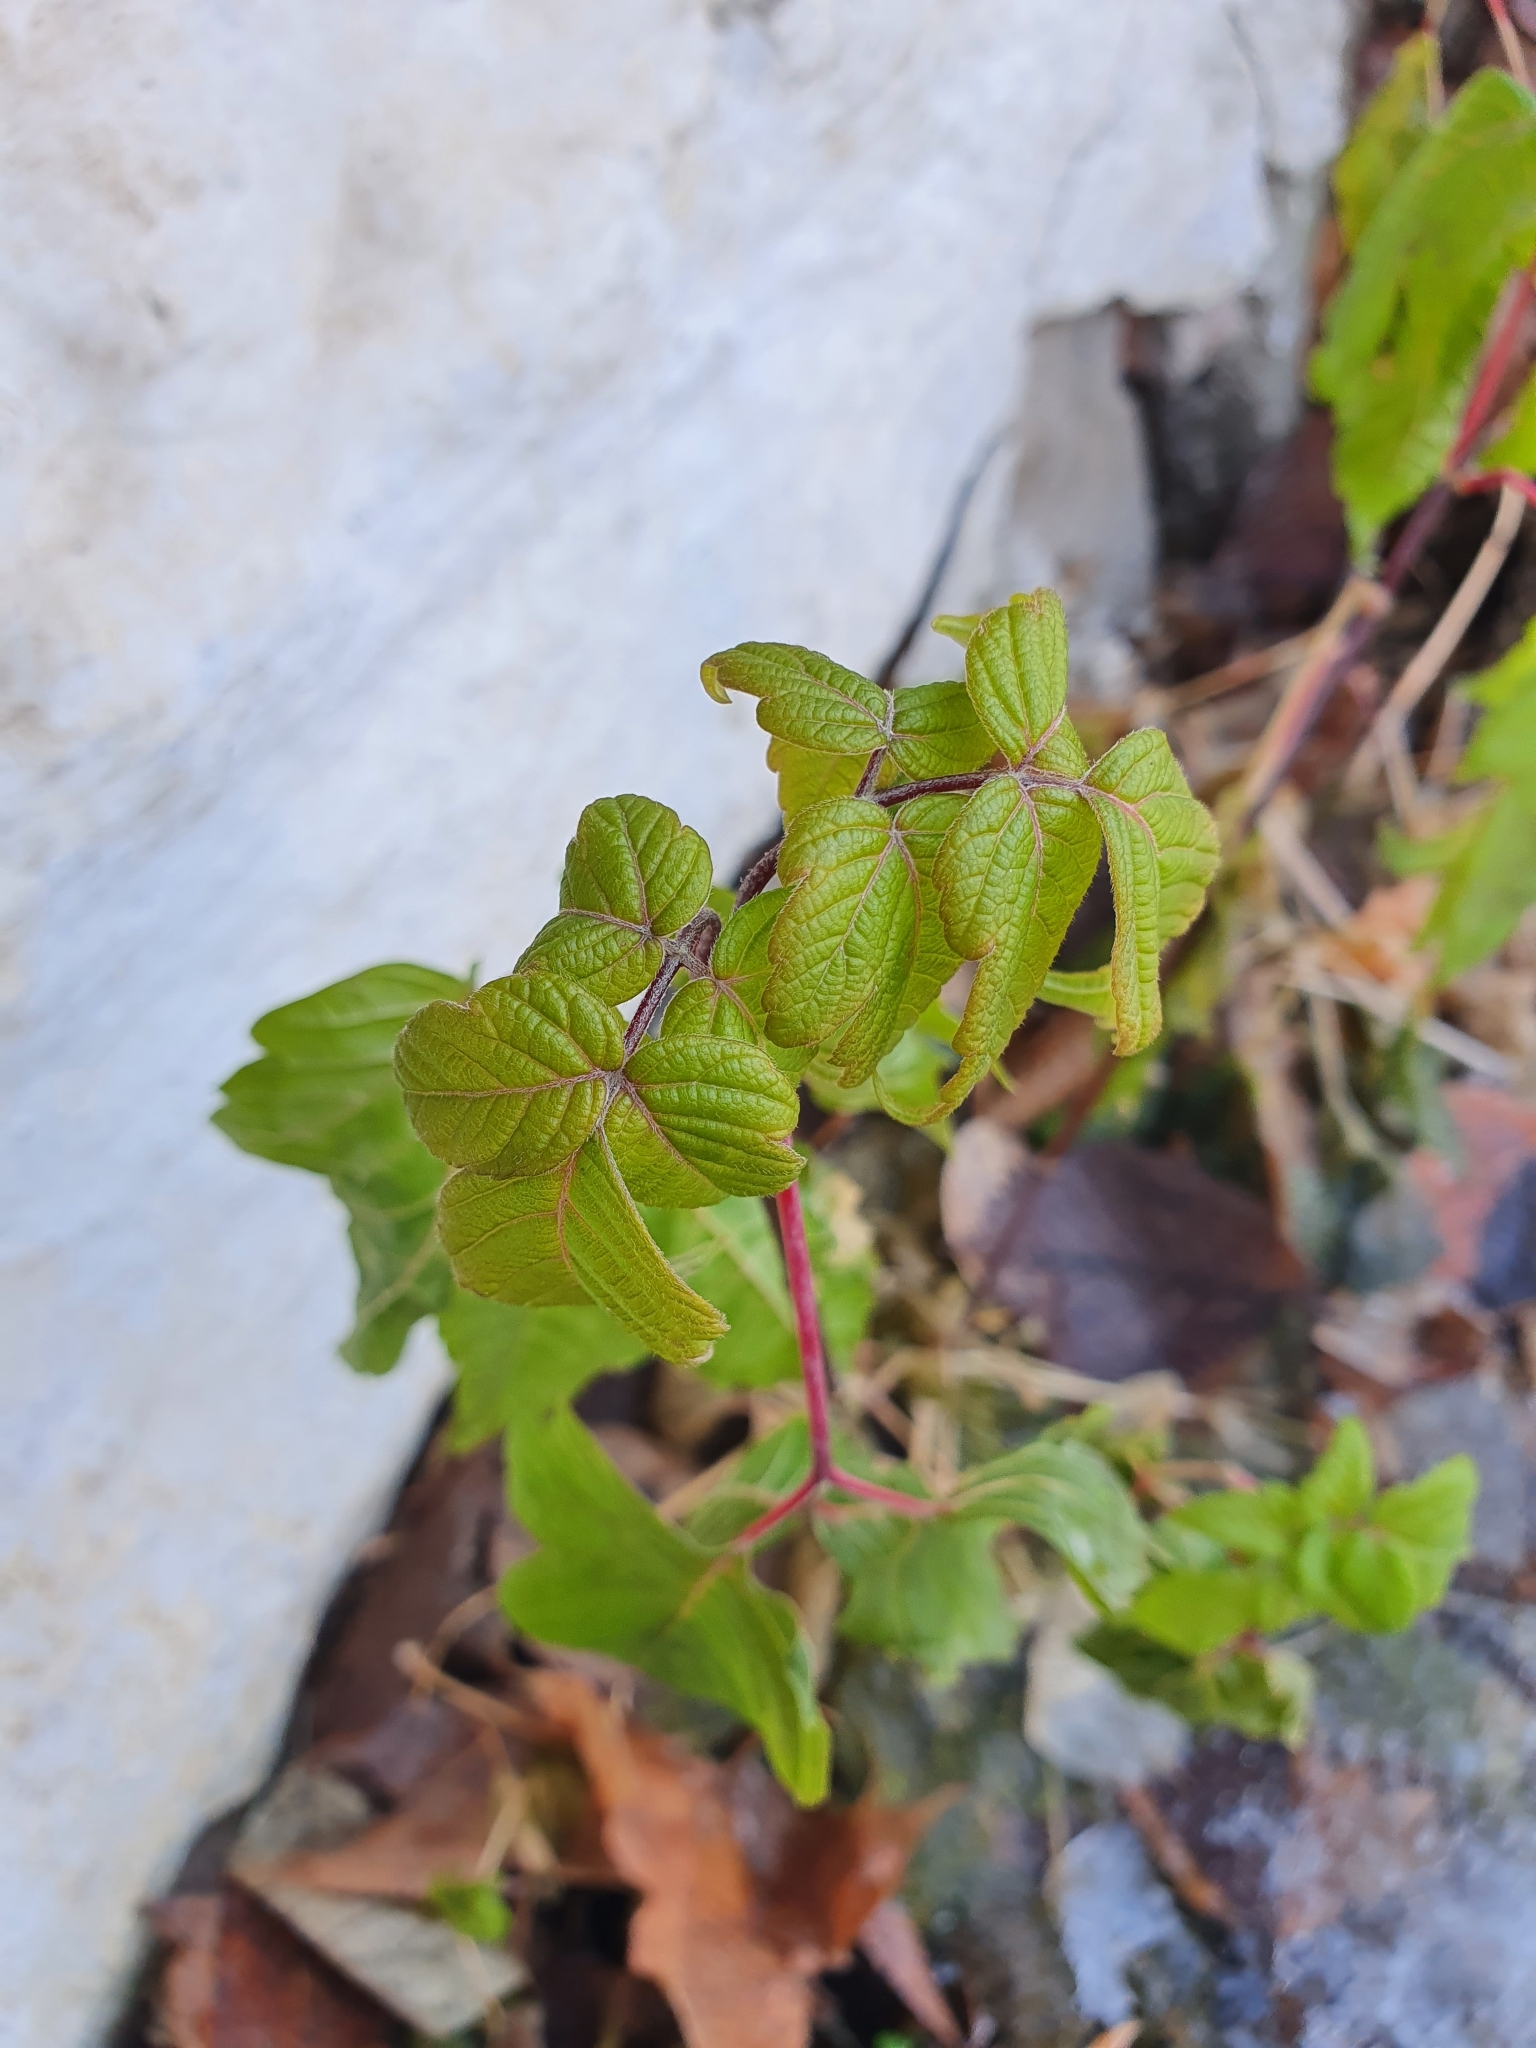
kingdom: Plantae
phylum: Tracheophyta
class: Magnoliopsida
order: Sapindales
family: Sapindaceae
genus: Acer
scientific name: Acer negundo
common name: Ashleaf maple
